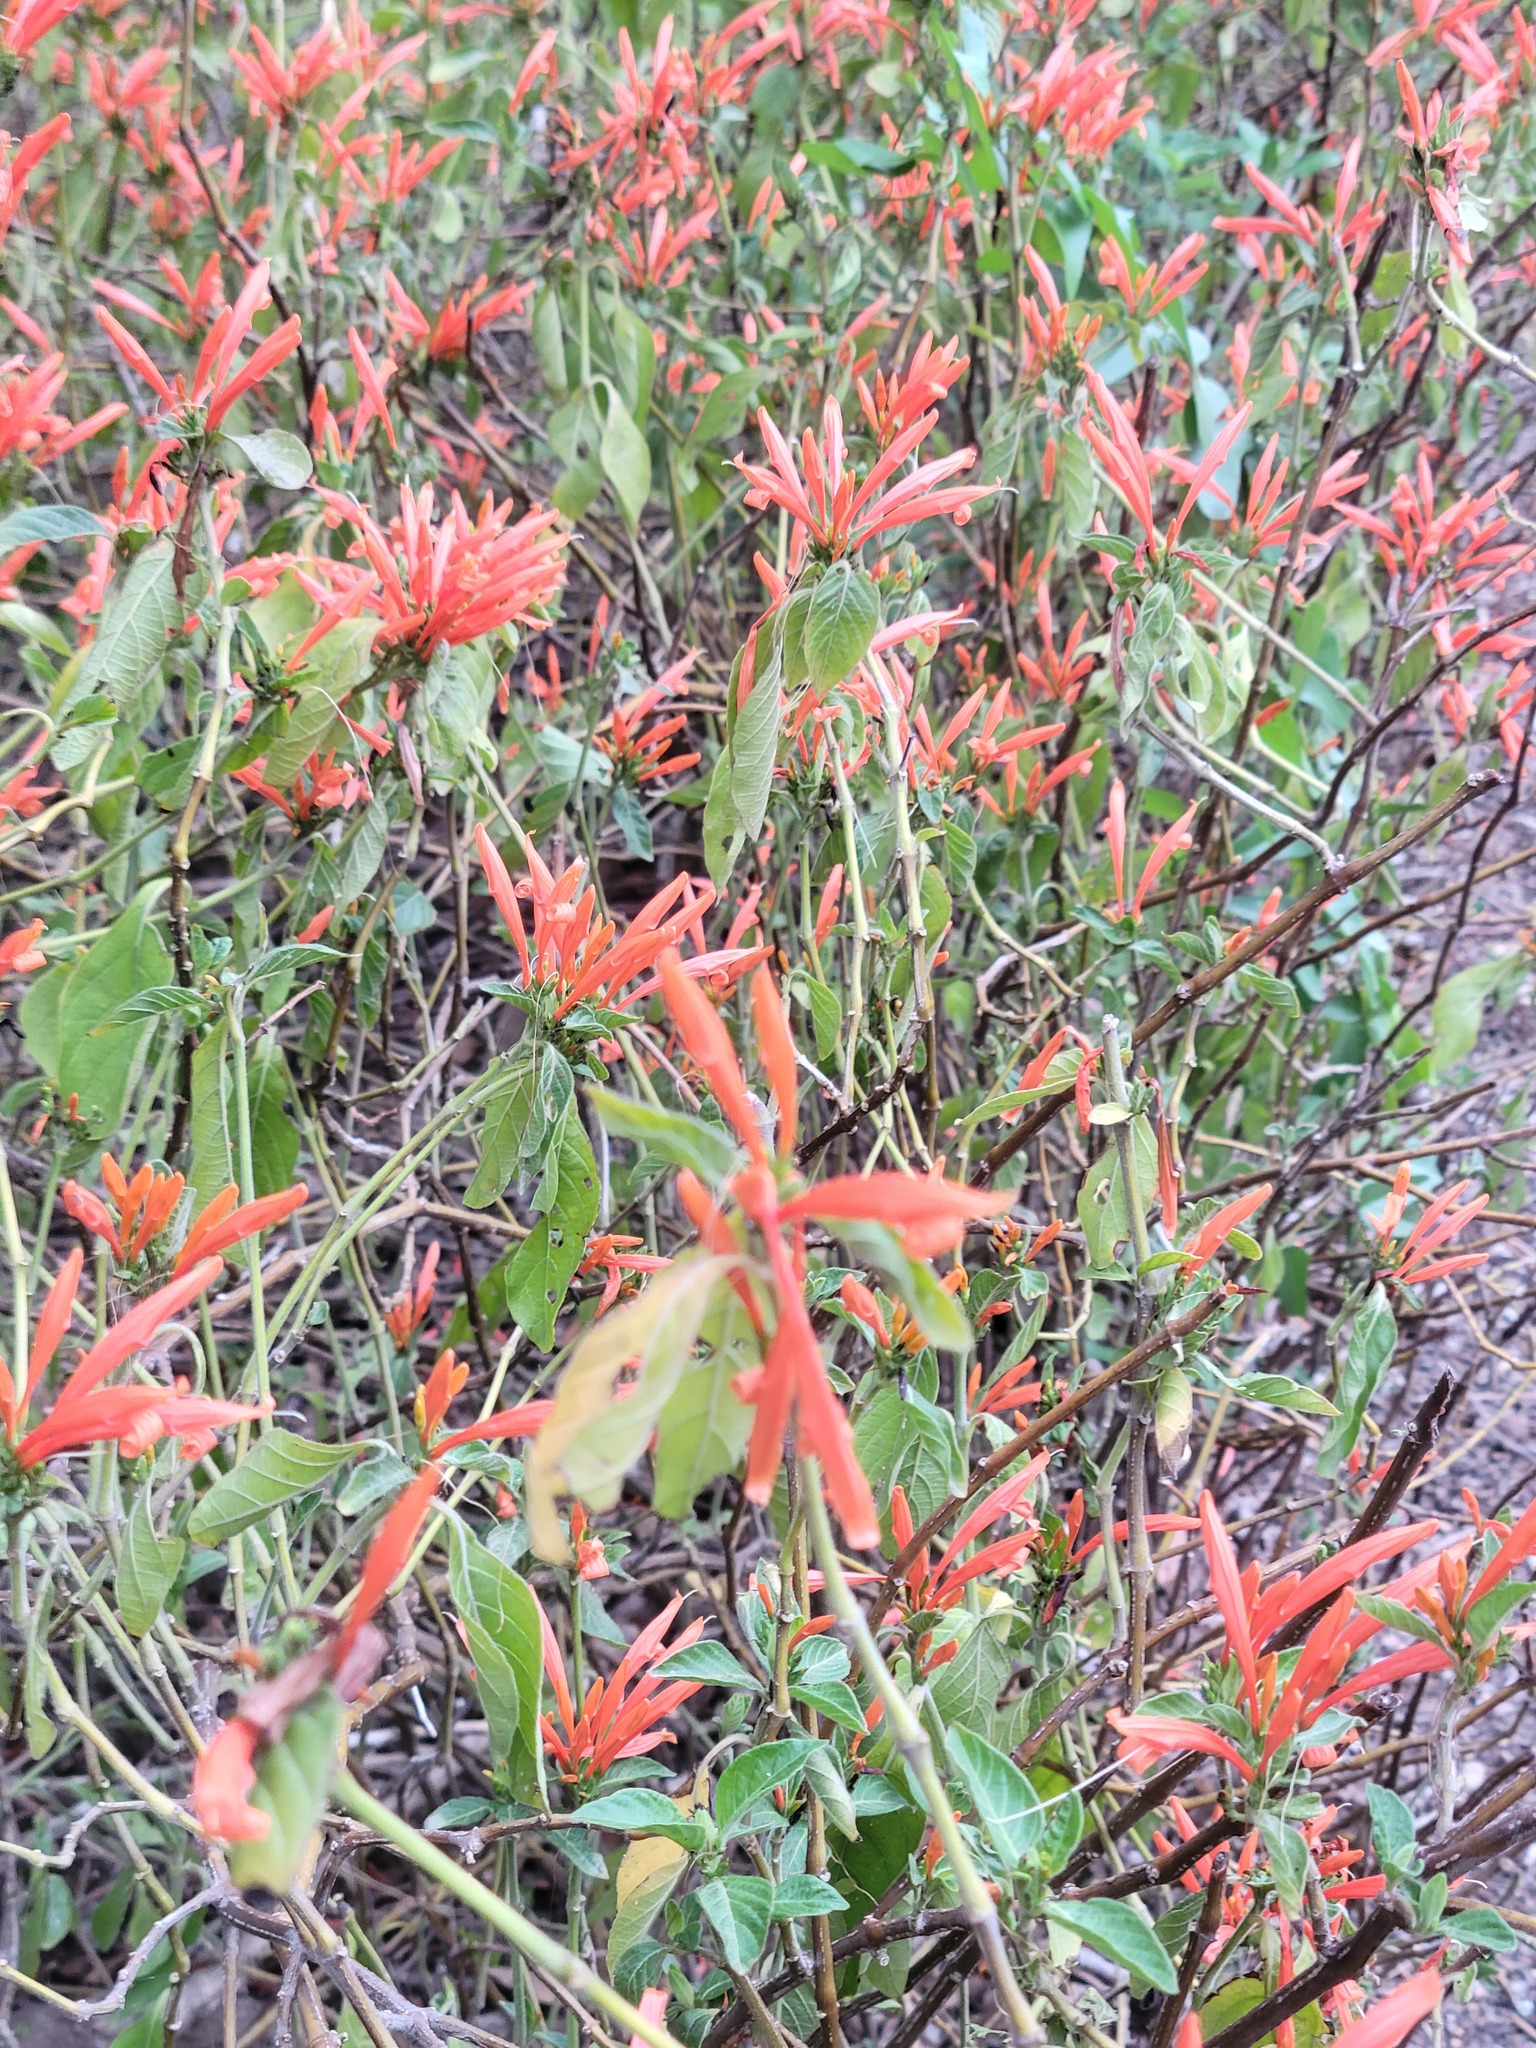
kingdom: Plantae
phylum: Tracheophyta
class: Magnoliopsida
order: Lamiales
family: Acanthaceae
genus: Justicia
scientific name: Justicia spicigera
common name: Mohintli
